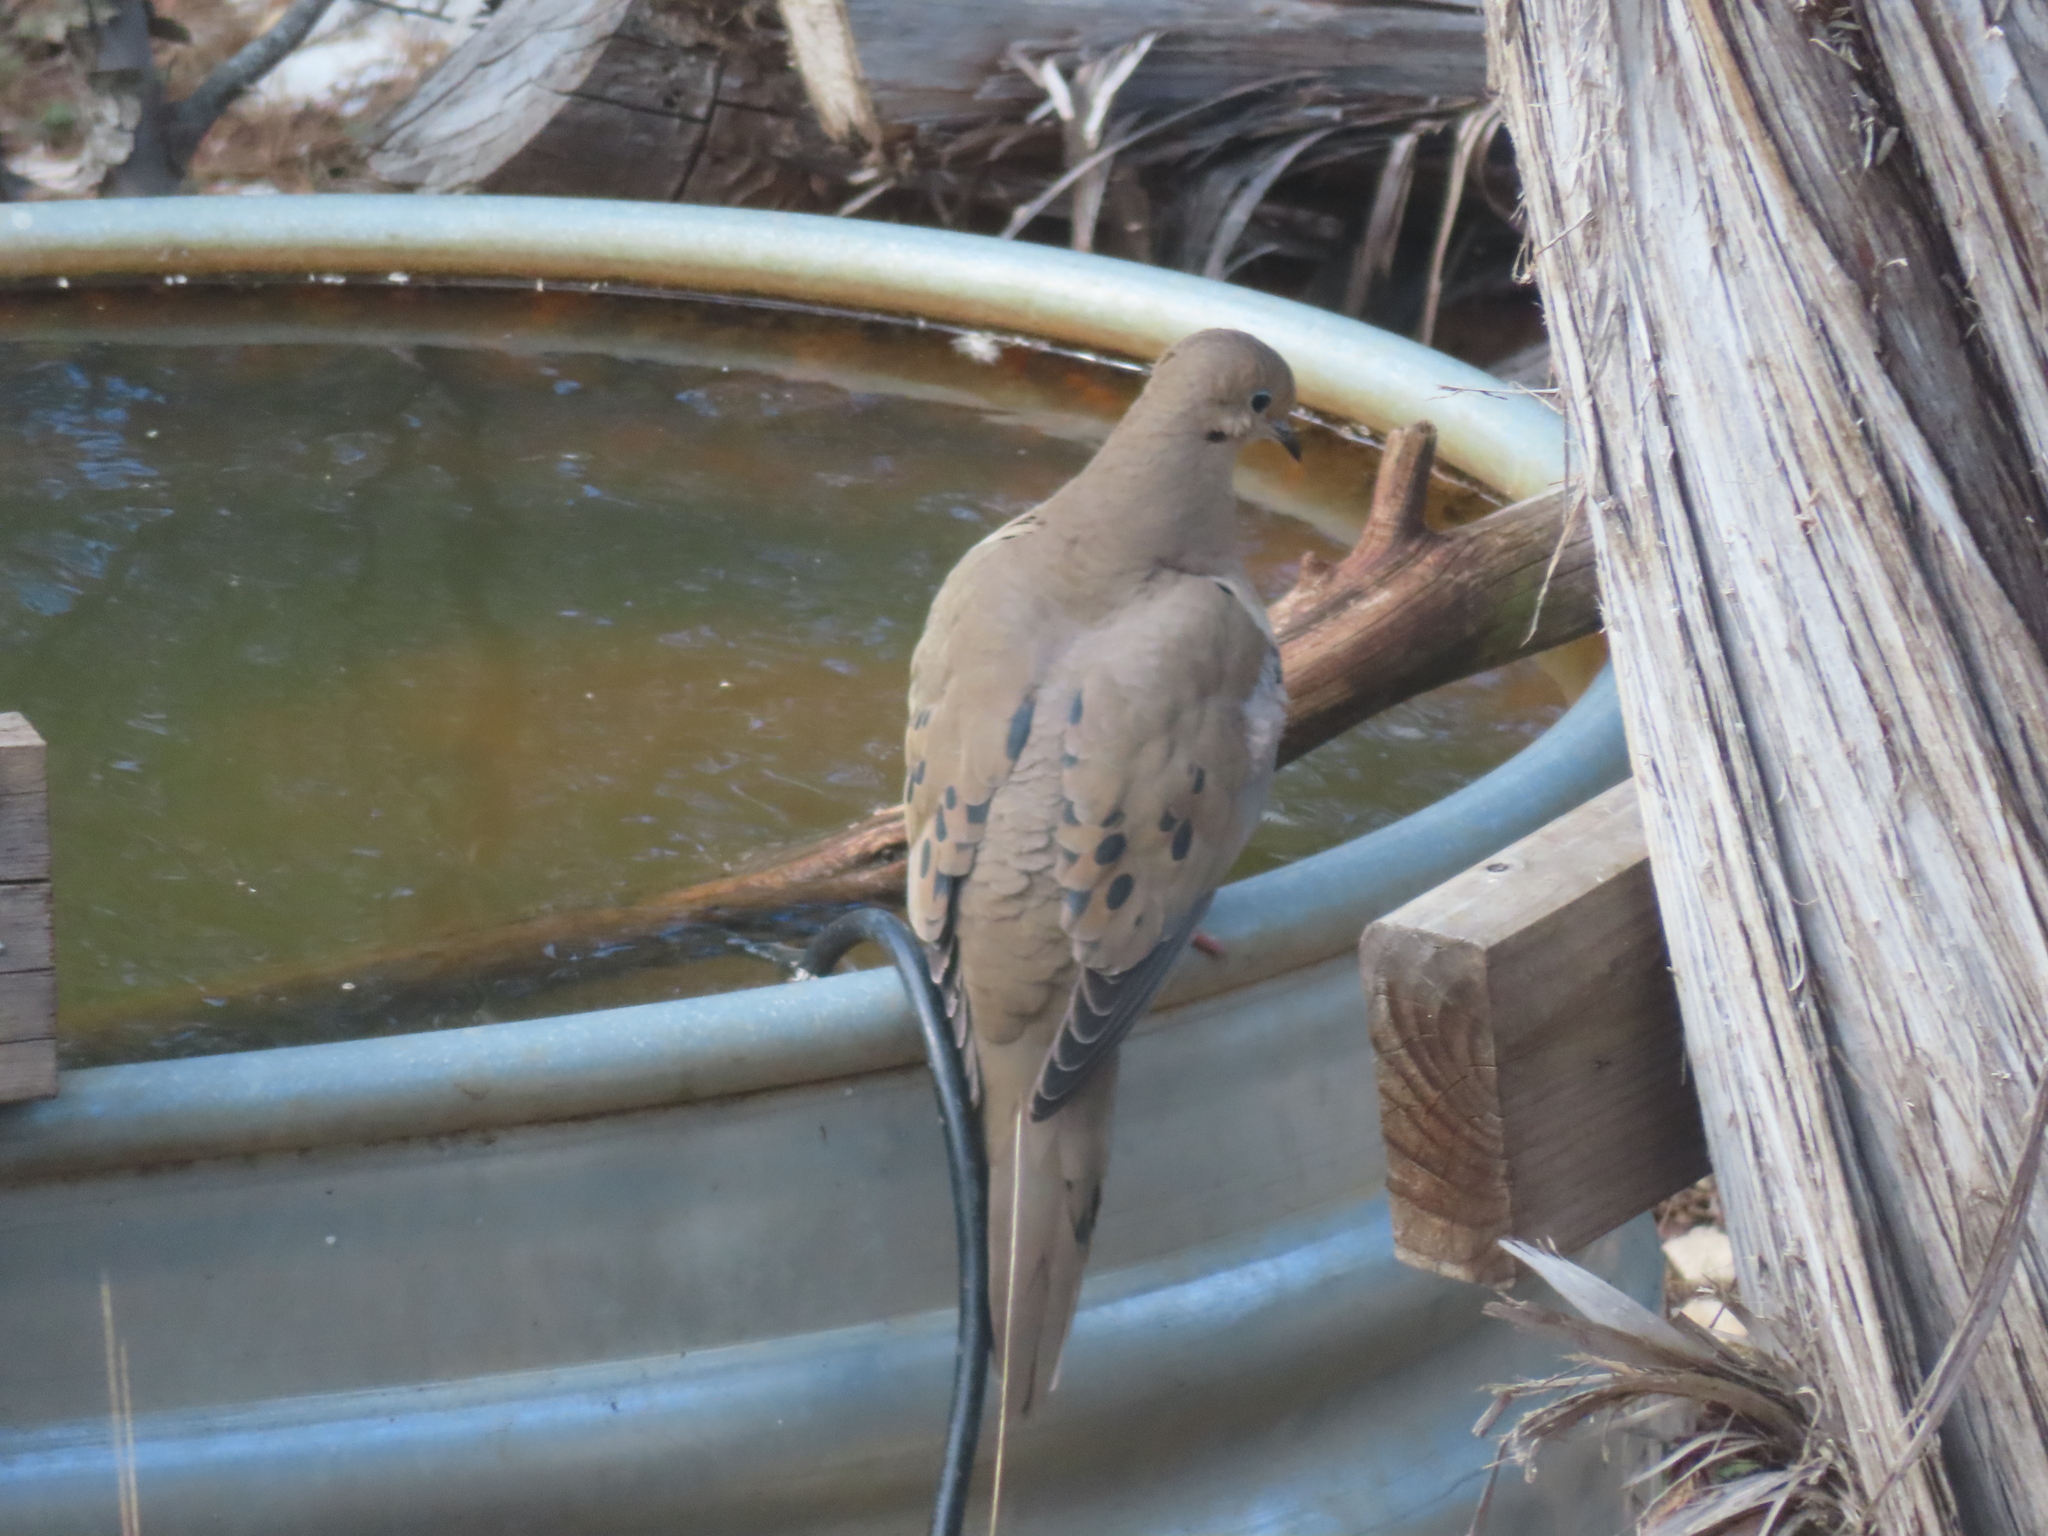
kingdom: Animalia
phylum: Chordata
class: Aves
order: Columbiformes
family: Columbidae
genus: Zenaida
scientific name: Zenaida macroura
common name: Mourning dove
